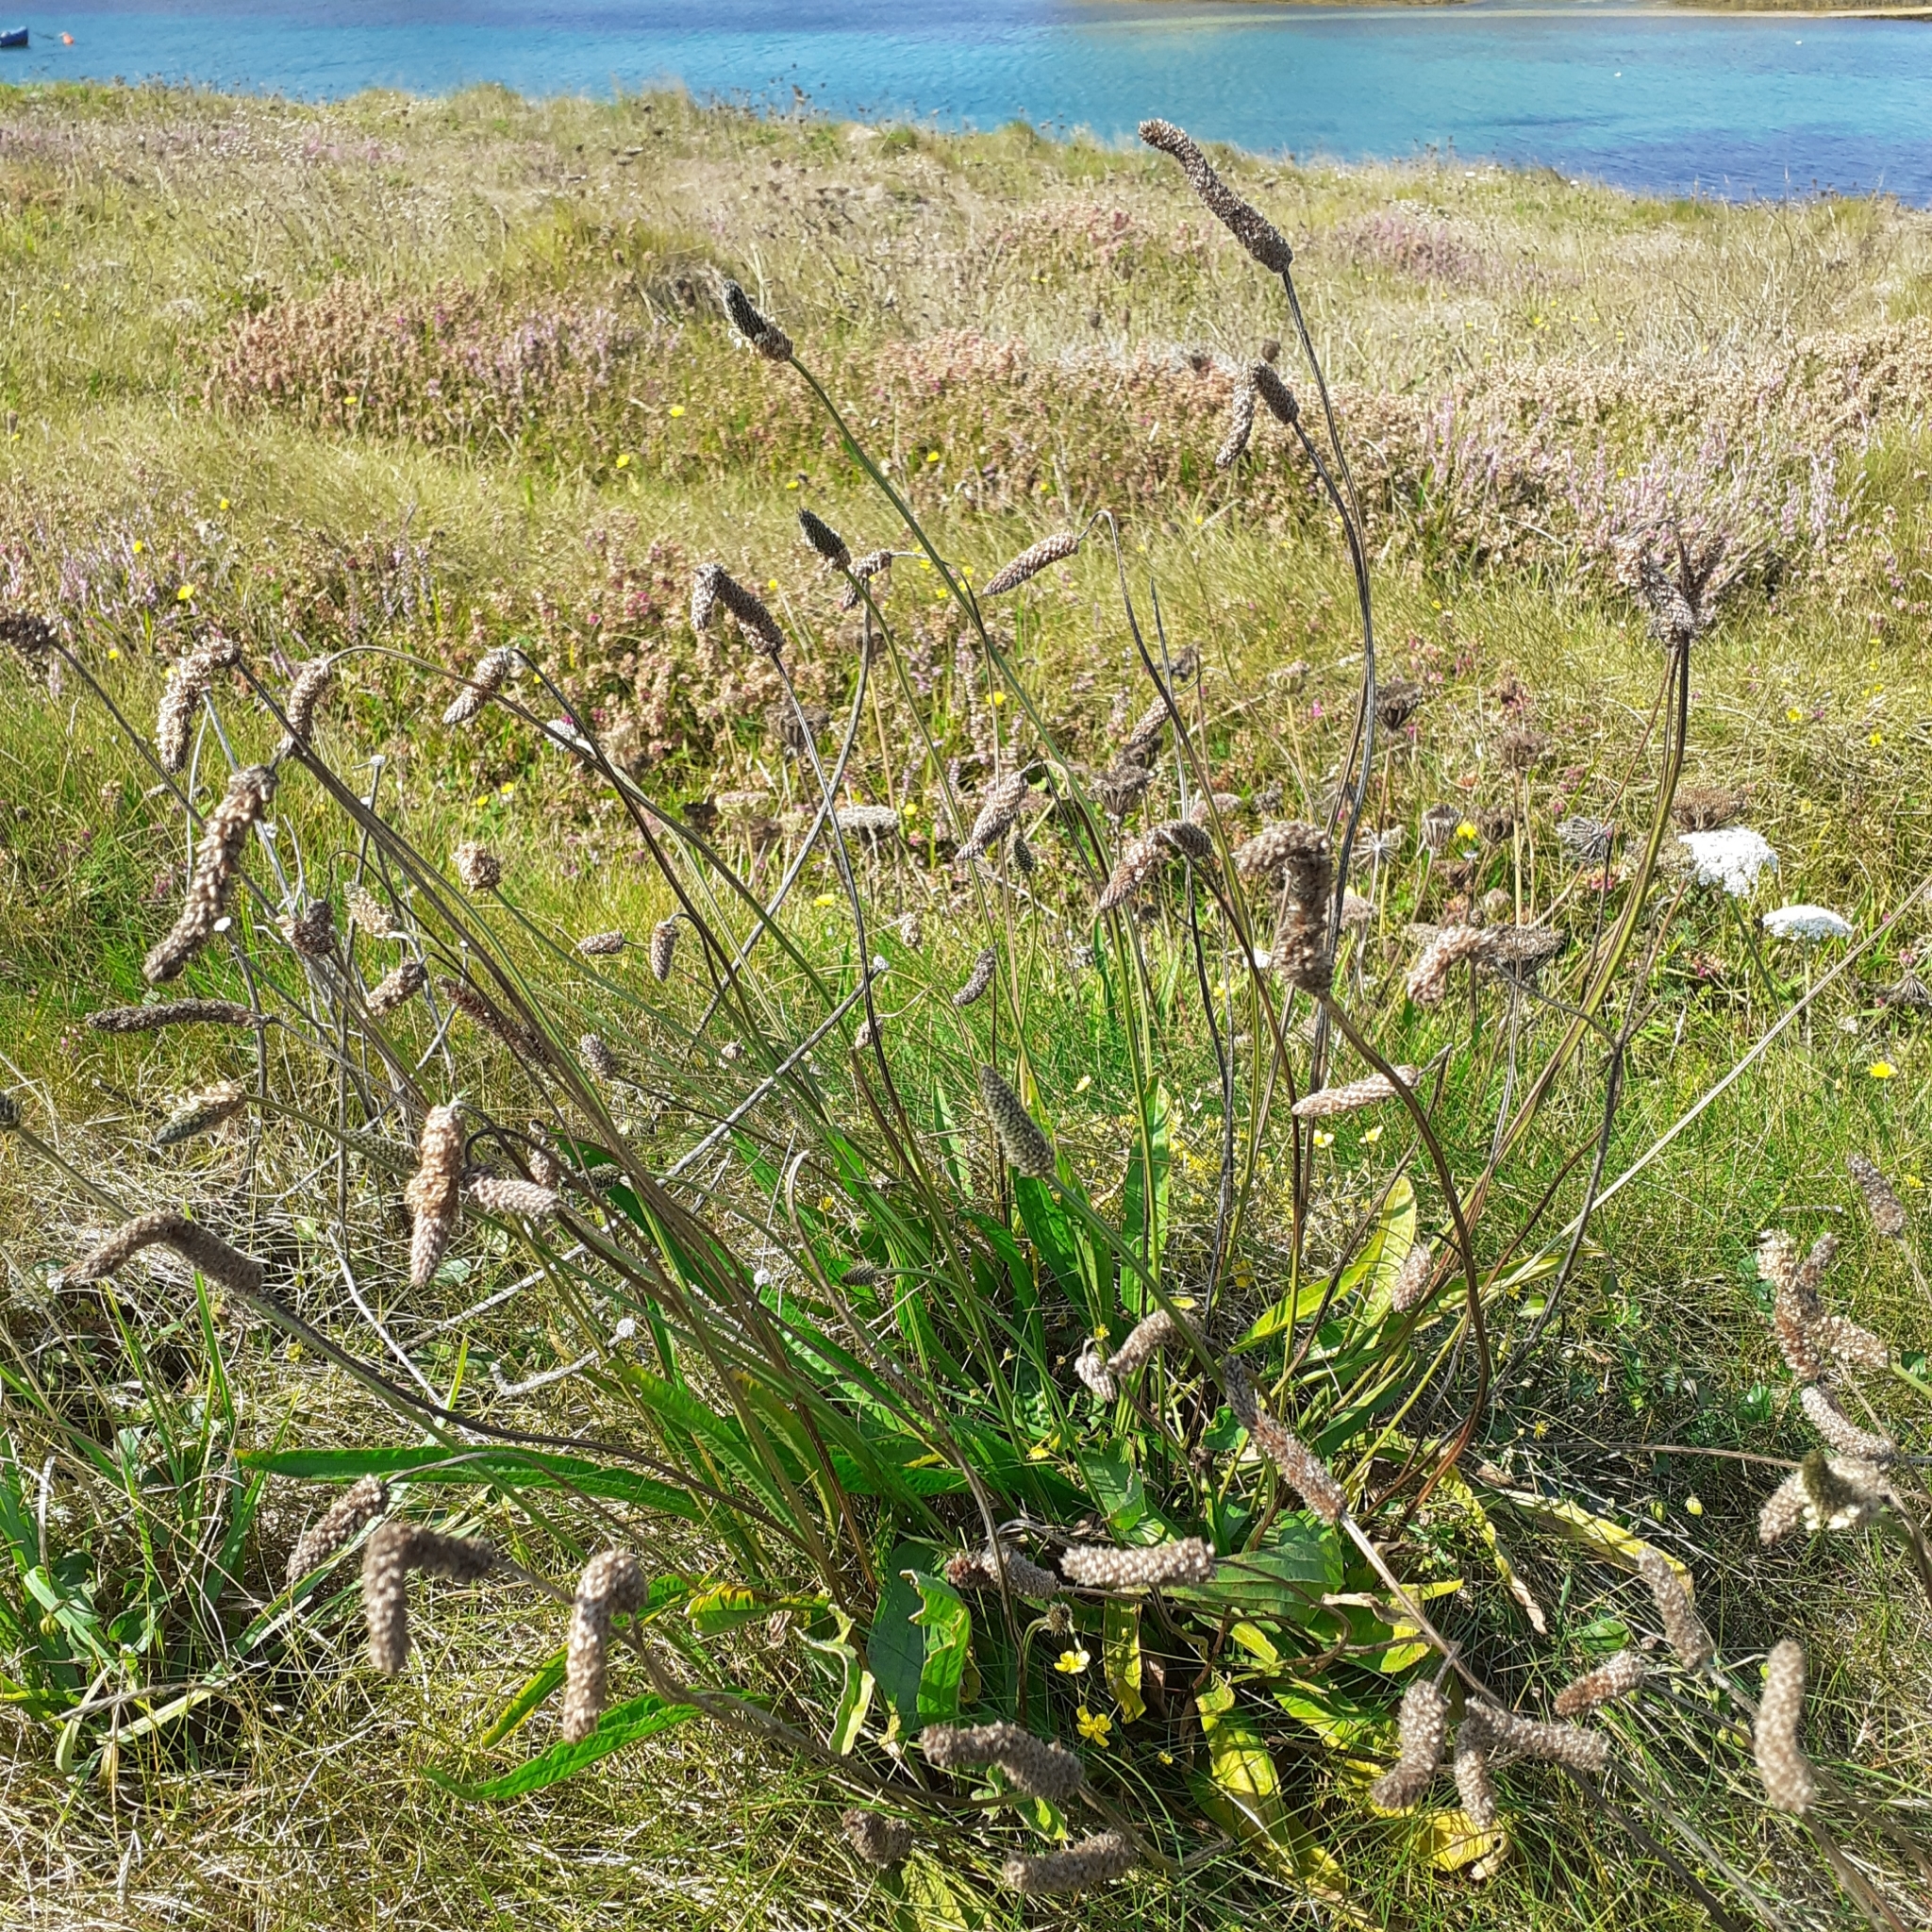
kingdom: Plantae
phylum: Tracheophyta
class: Magnoliopsida
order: Lamiales
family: Plantaginaceae
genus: Plantago
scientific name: Plantago lanceolata
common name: Ribwort plantain
